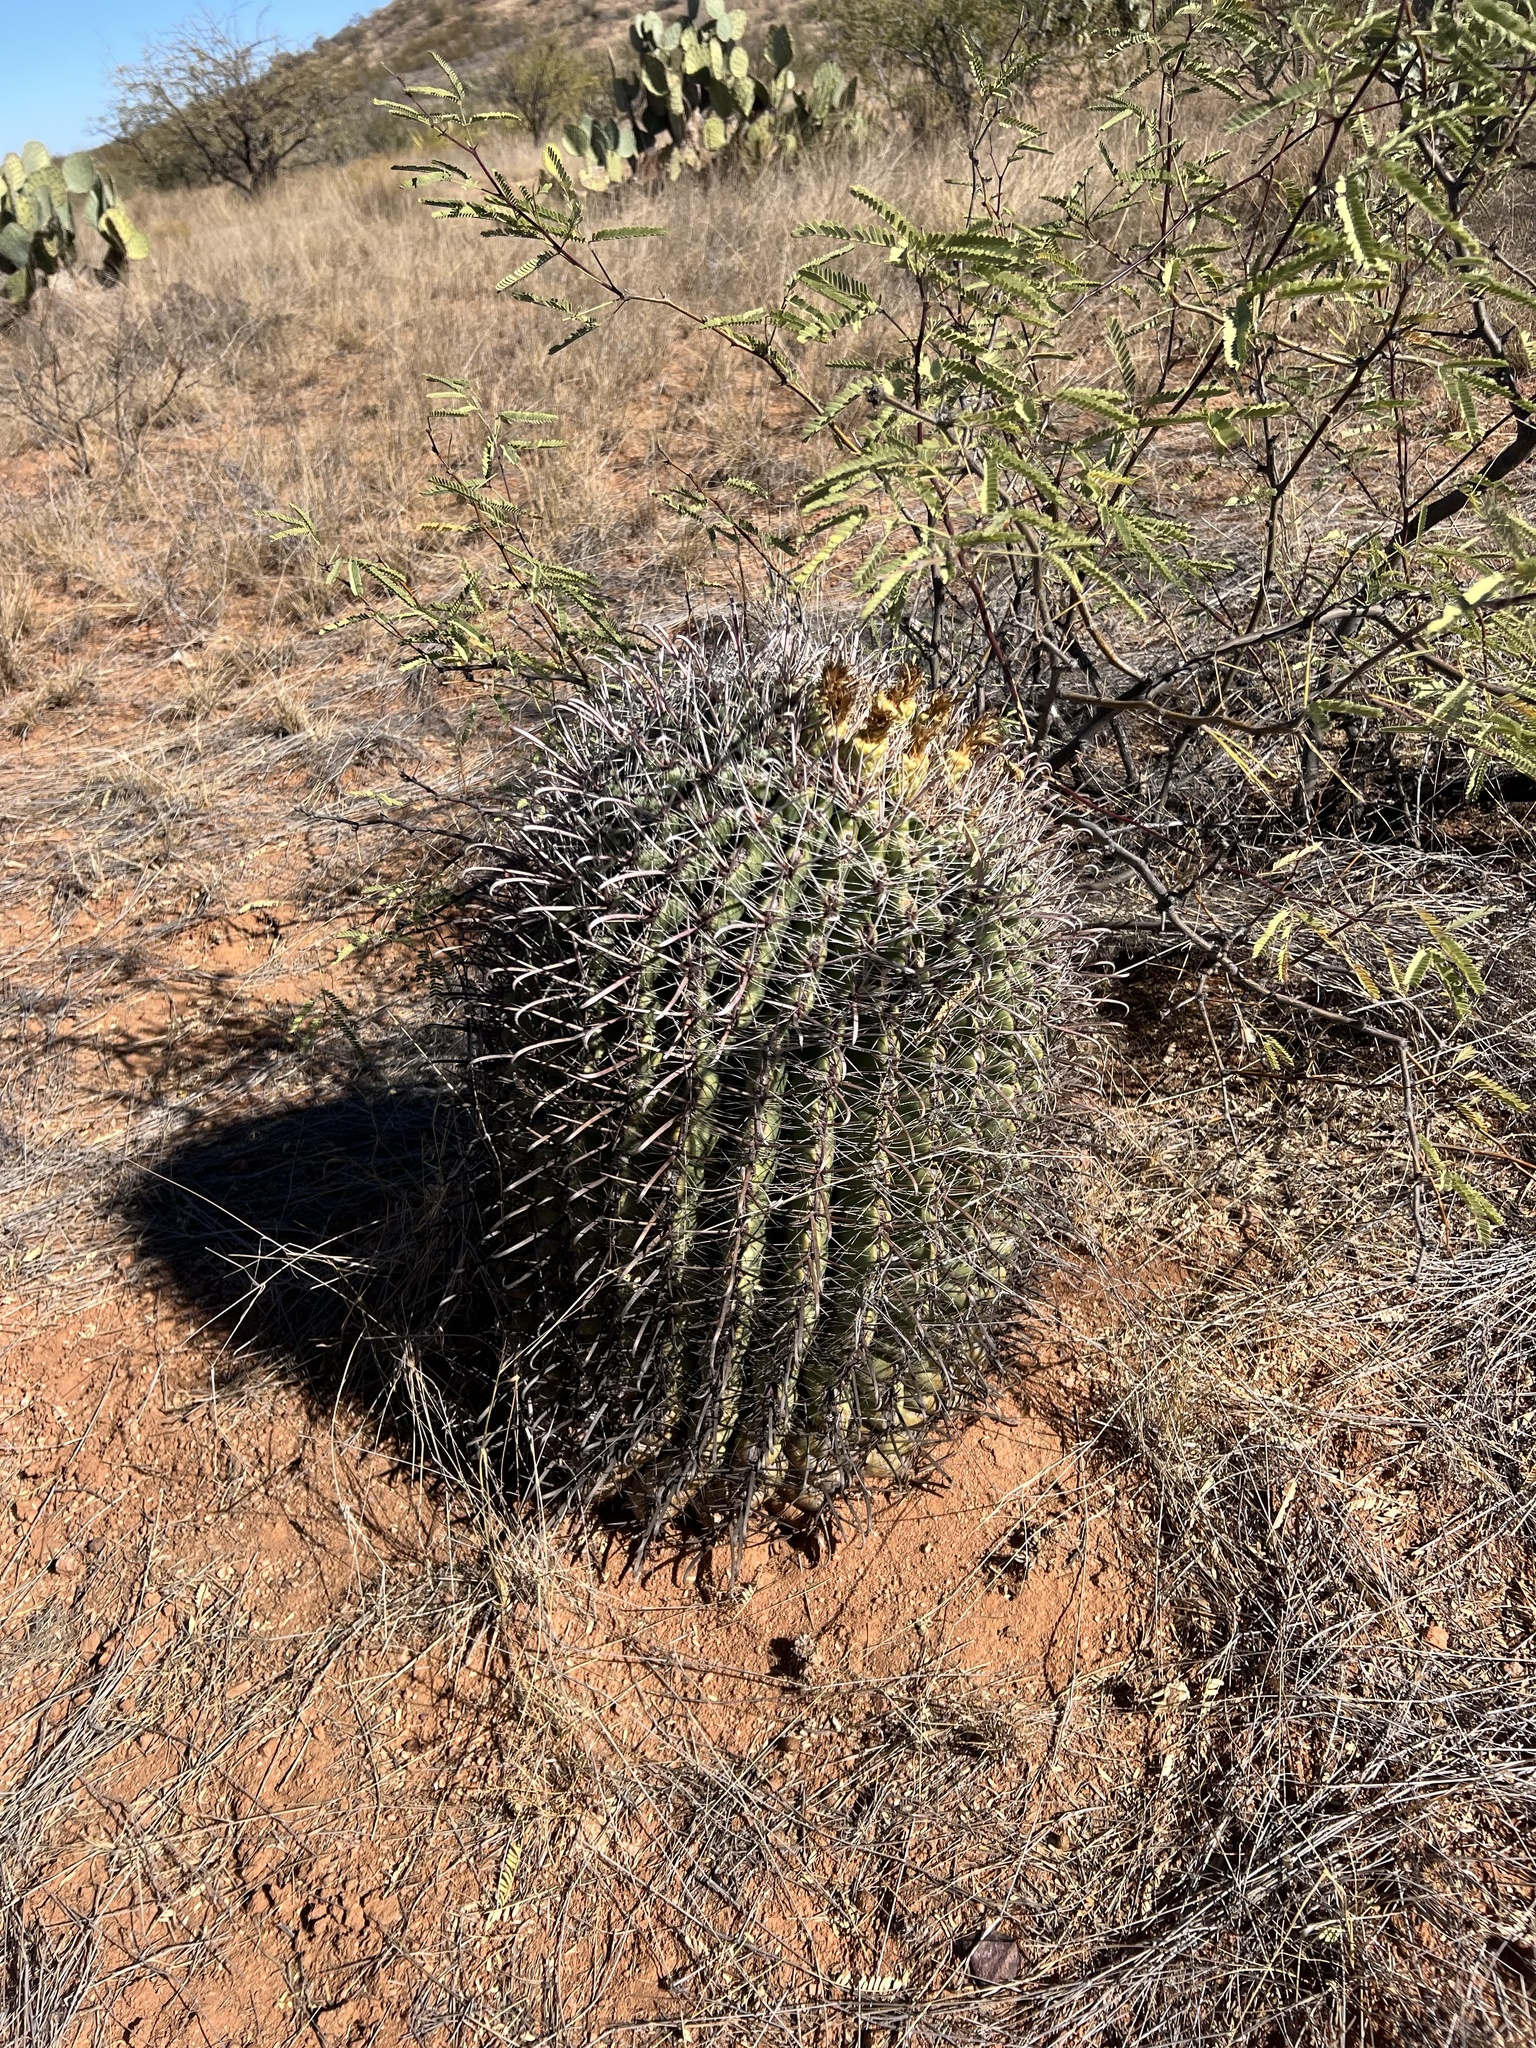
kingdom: Plantae
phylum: Tracheophyta
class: Magnoliopsida
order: Caryophyllales
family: Cactaceae
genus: Ferocactus
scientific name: Ferocactus wislizeni
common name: Candy barrel cactus
